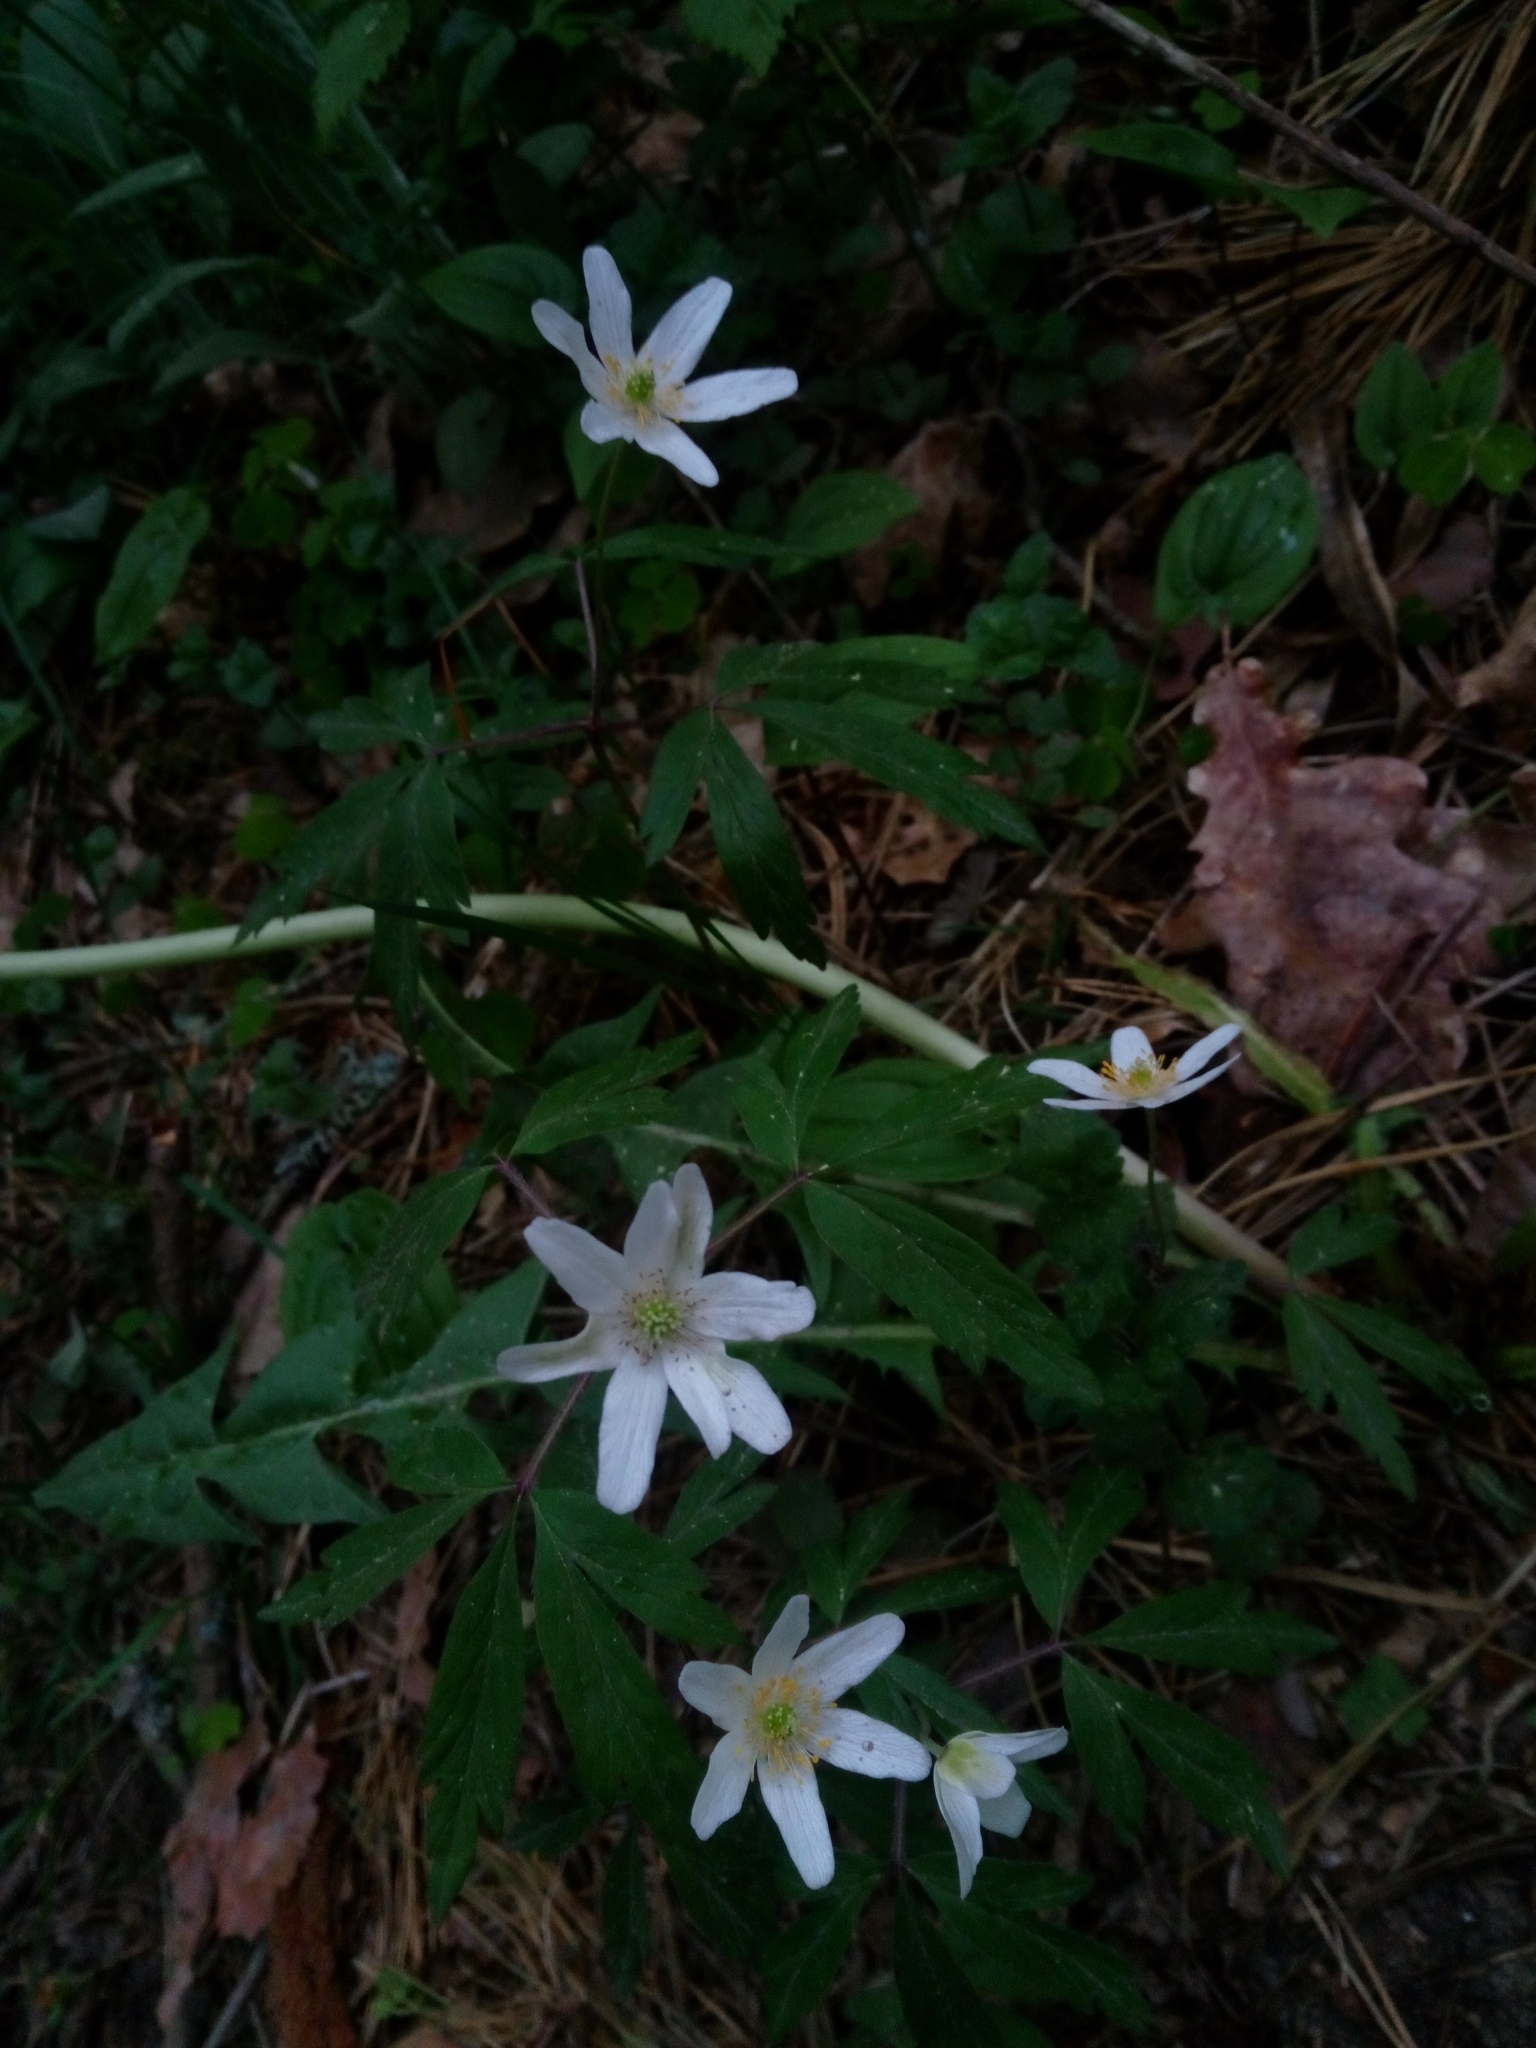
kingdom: Plantae
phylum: Tracheophyta
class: Magnoliopsida
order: Ranunculales
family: Ranunculaceae
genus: Anemone
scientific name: Anemone nemorosa
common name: Wood anemone
